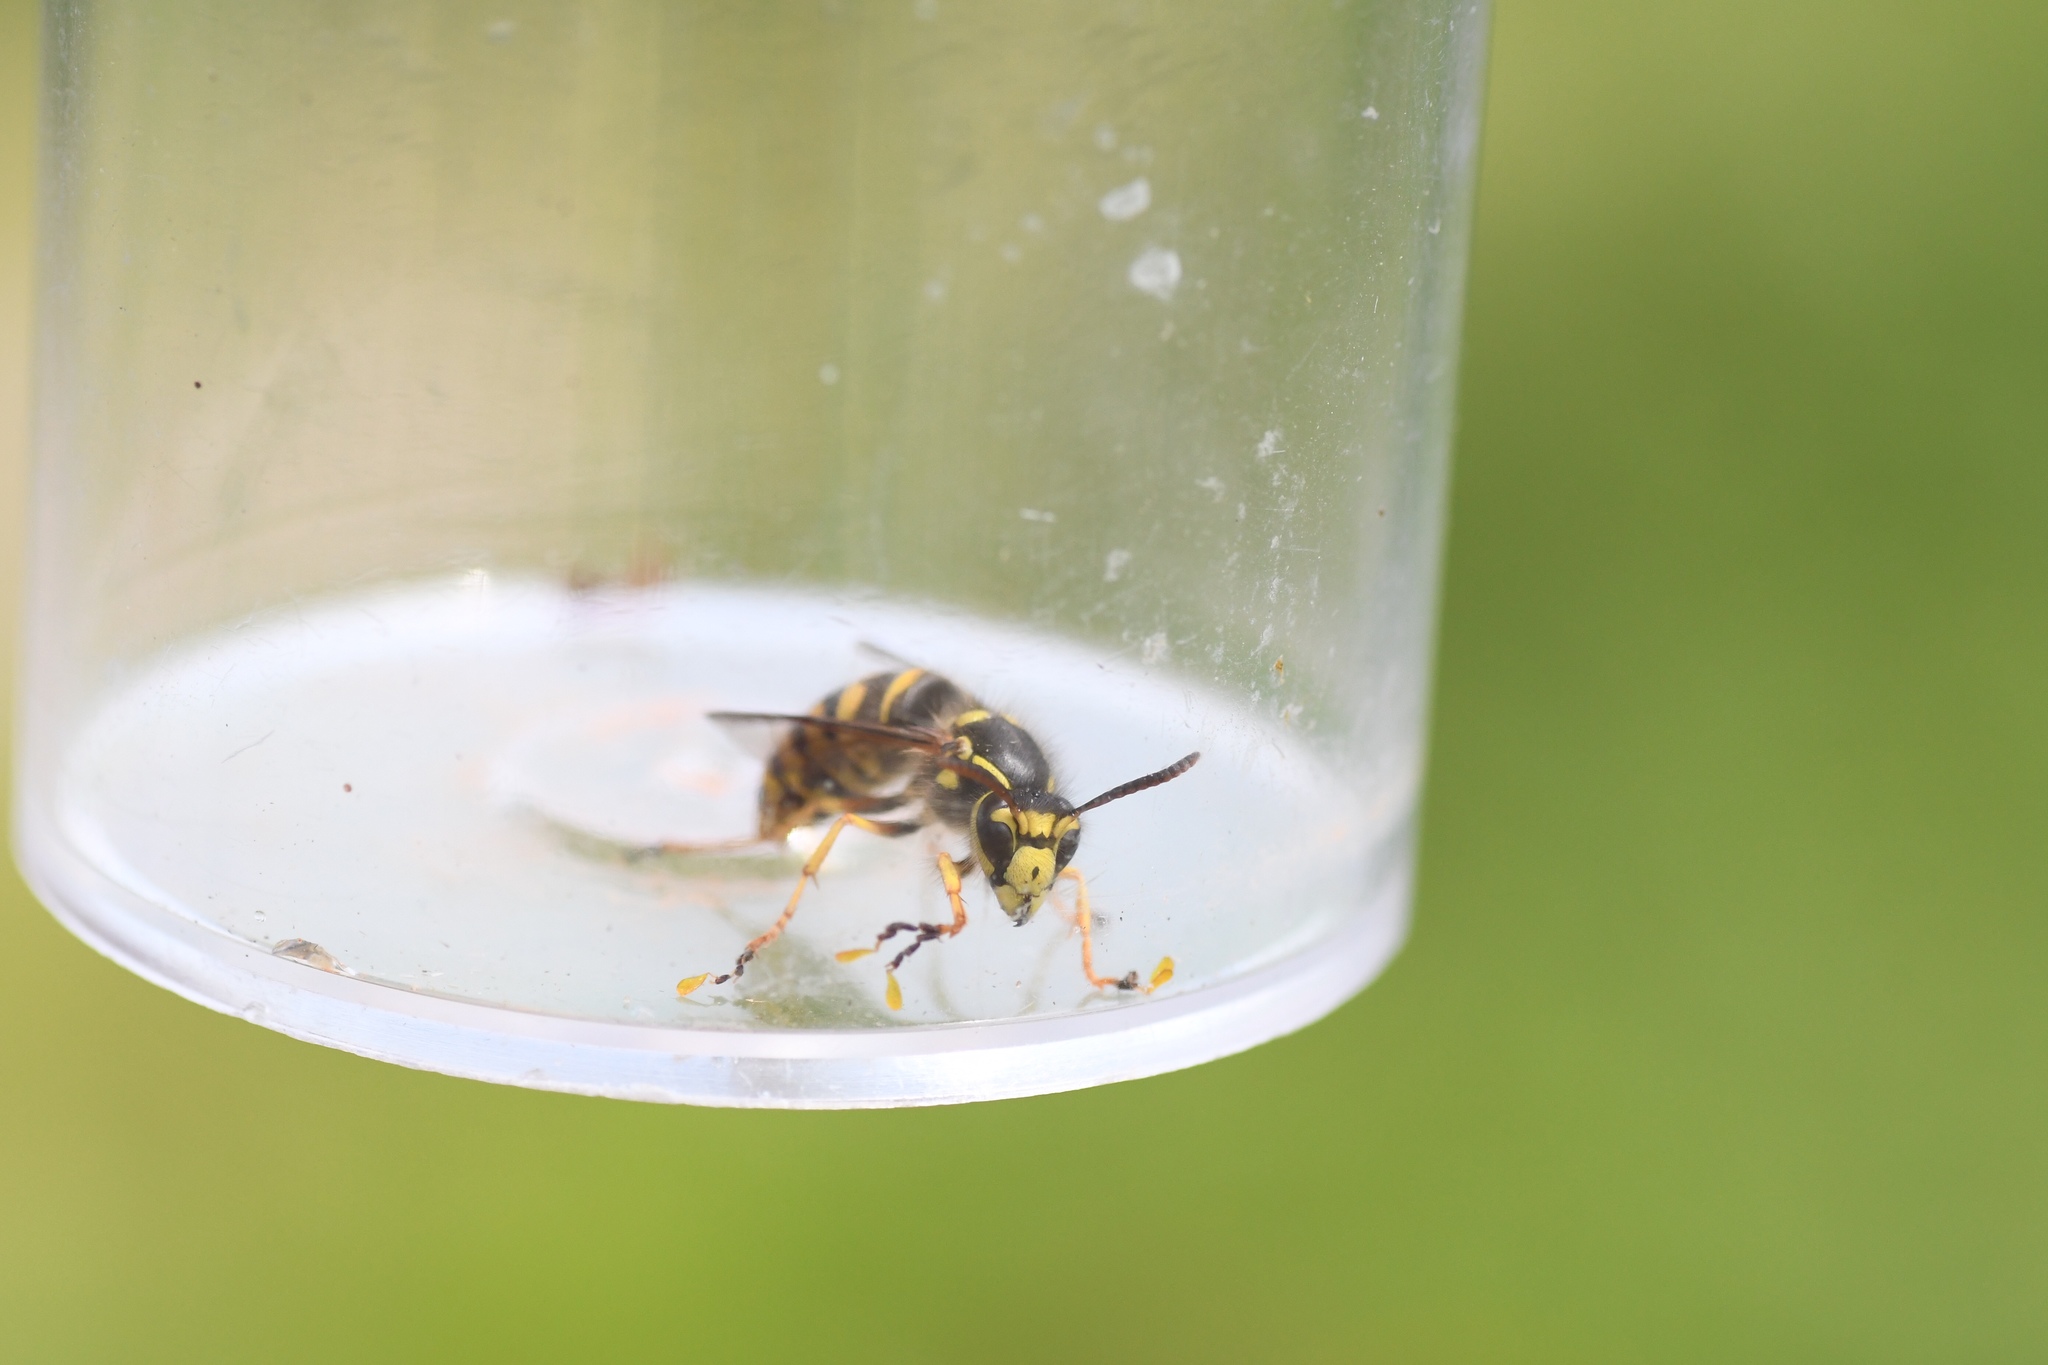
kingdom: Animalia
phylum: Arthropoda
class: Insecta
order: Hymenoptera
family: Vespidae
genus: Dolichovespula
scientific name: Dolichovespula arenaria
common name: Aerial yellowjacket
